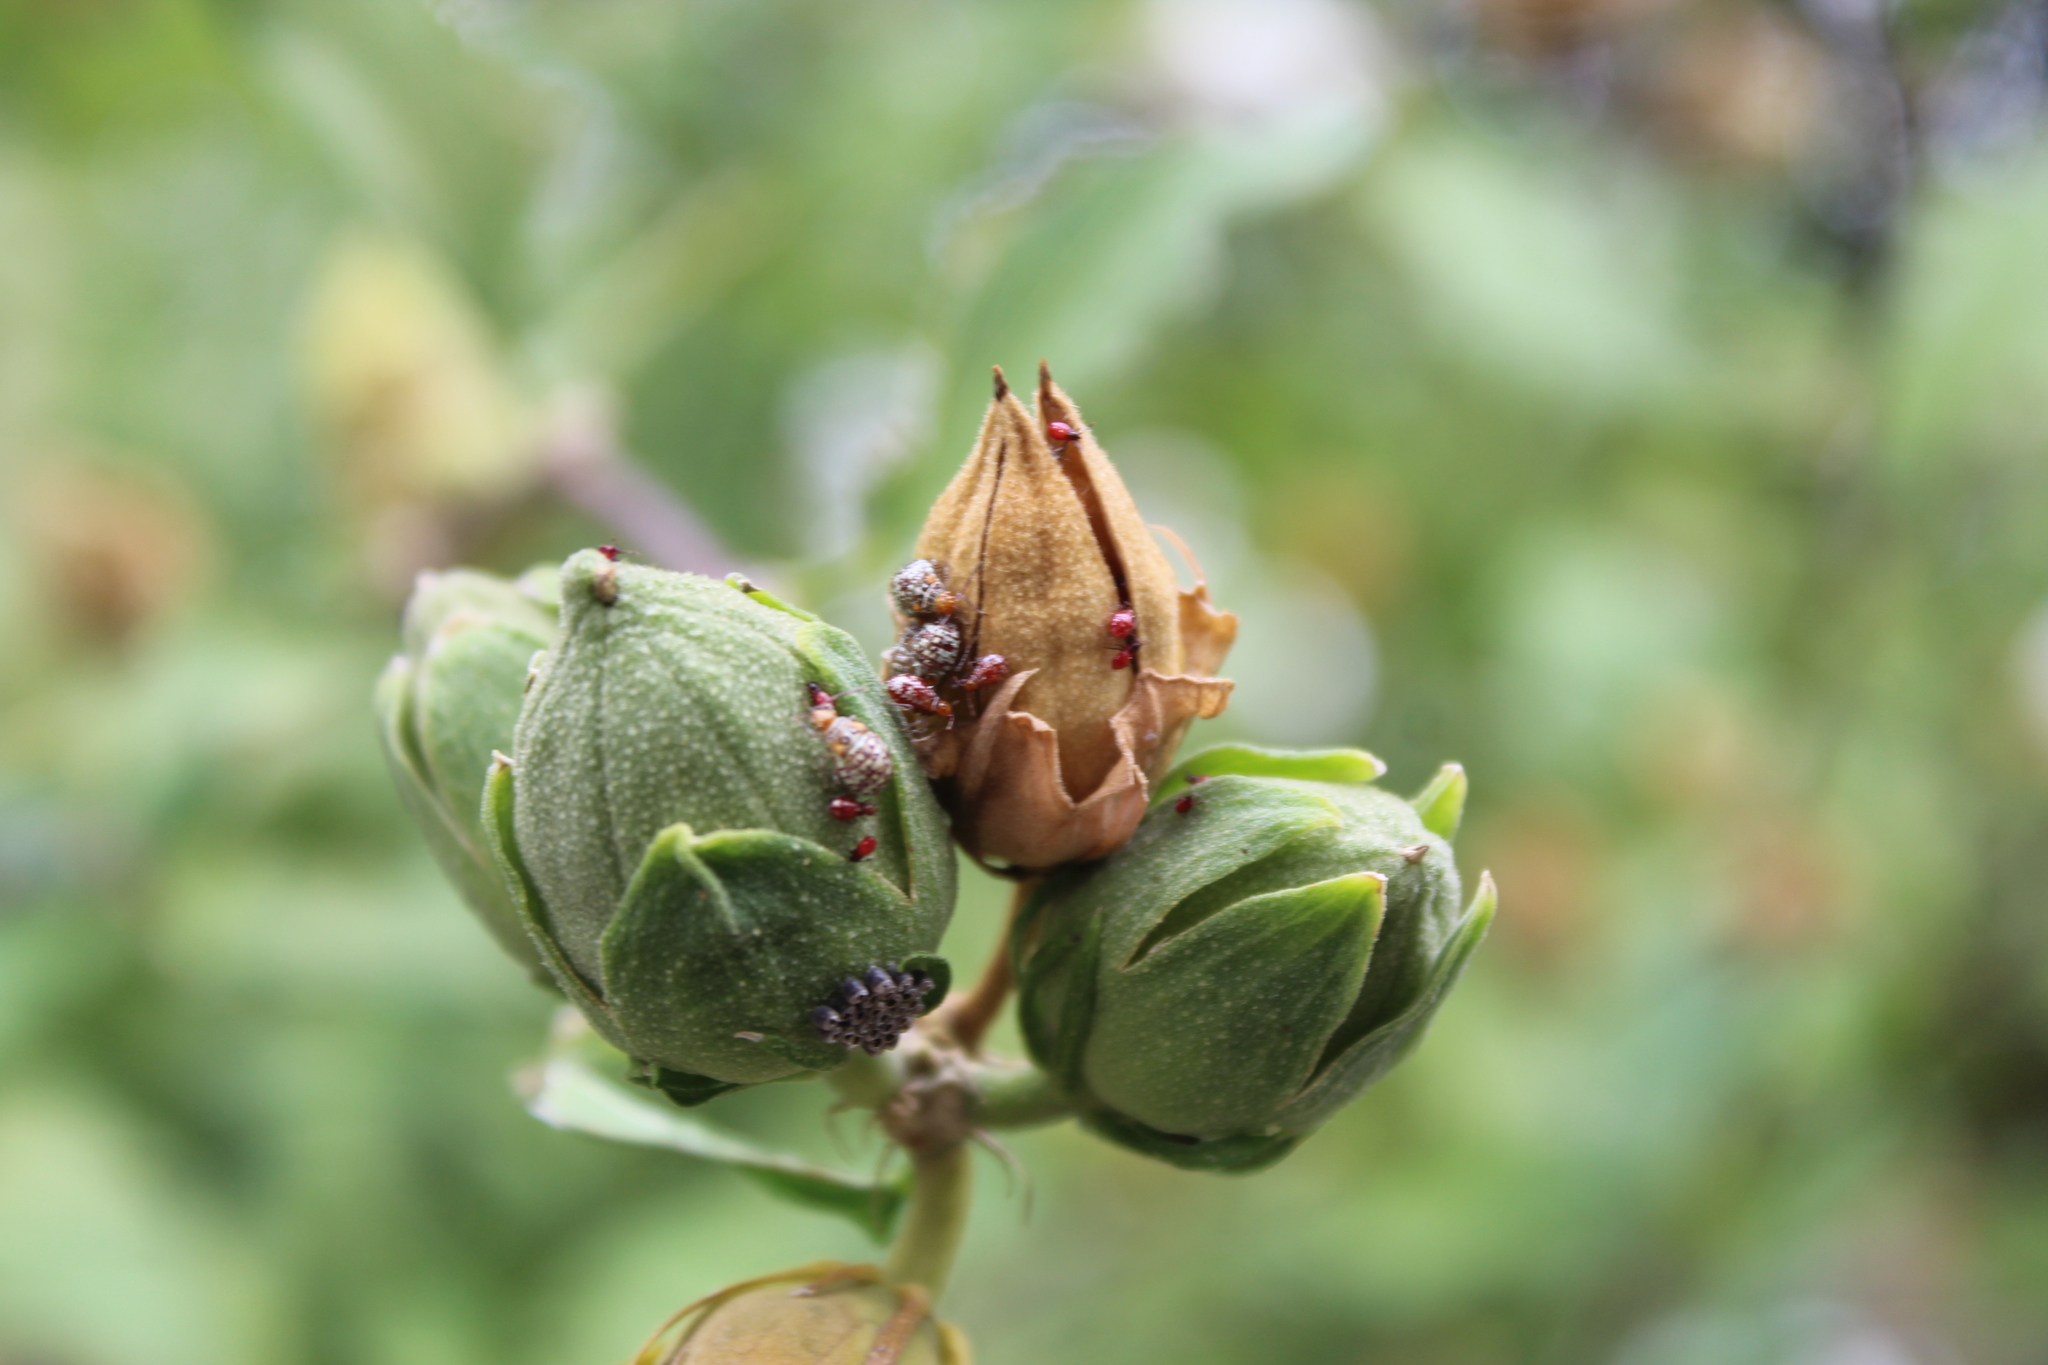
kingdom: Animalia
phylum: Arthropoda
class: Insecta
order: Hemiptera
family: Rhopalidae
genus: Niesthrea
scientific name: Niesthrea louisianica
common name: Scentless plant bug
